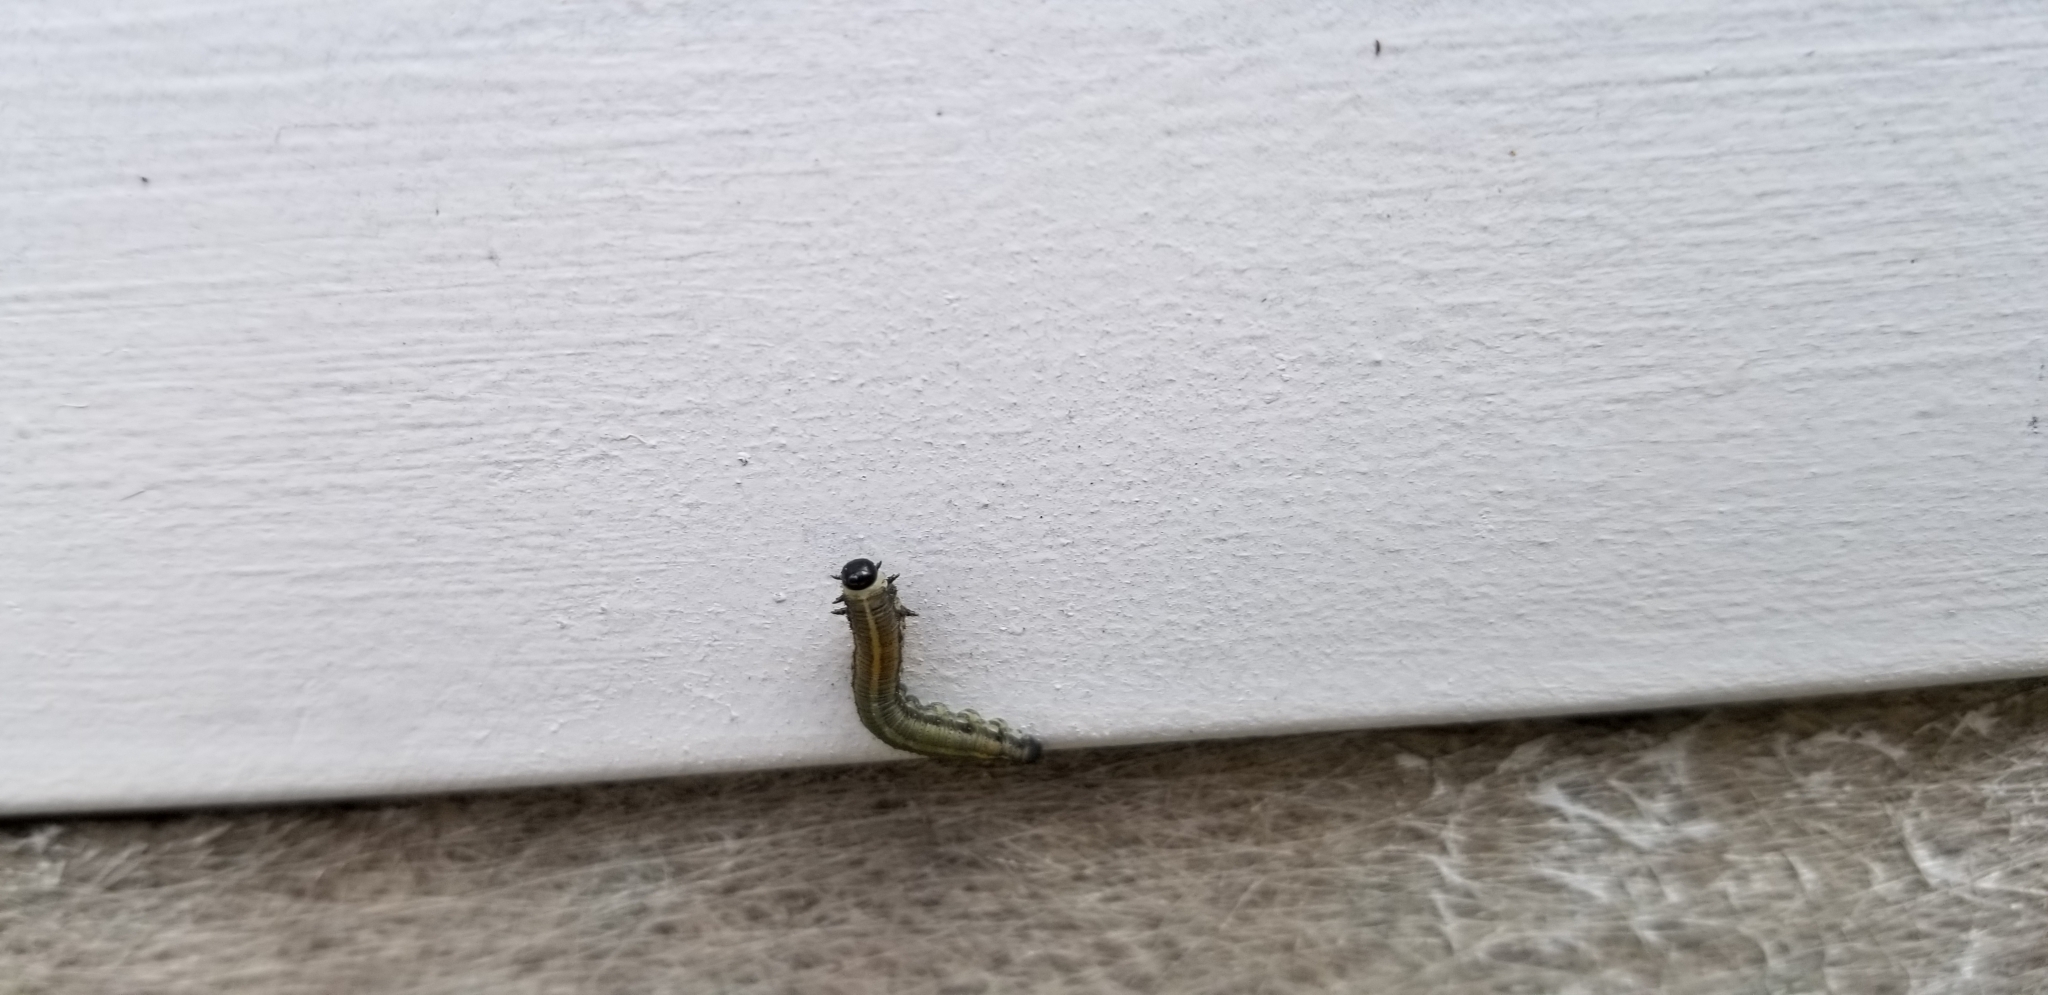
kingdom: Animalia
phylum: Arthropoda
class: Insecta
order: Hymenoptera
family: Diprionidae
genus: Neodiprion
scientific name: Neodiprion sertifer
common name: European pine sawfly
